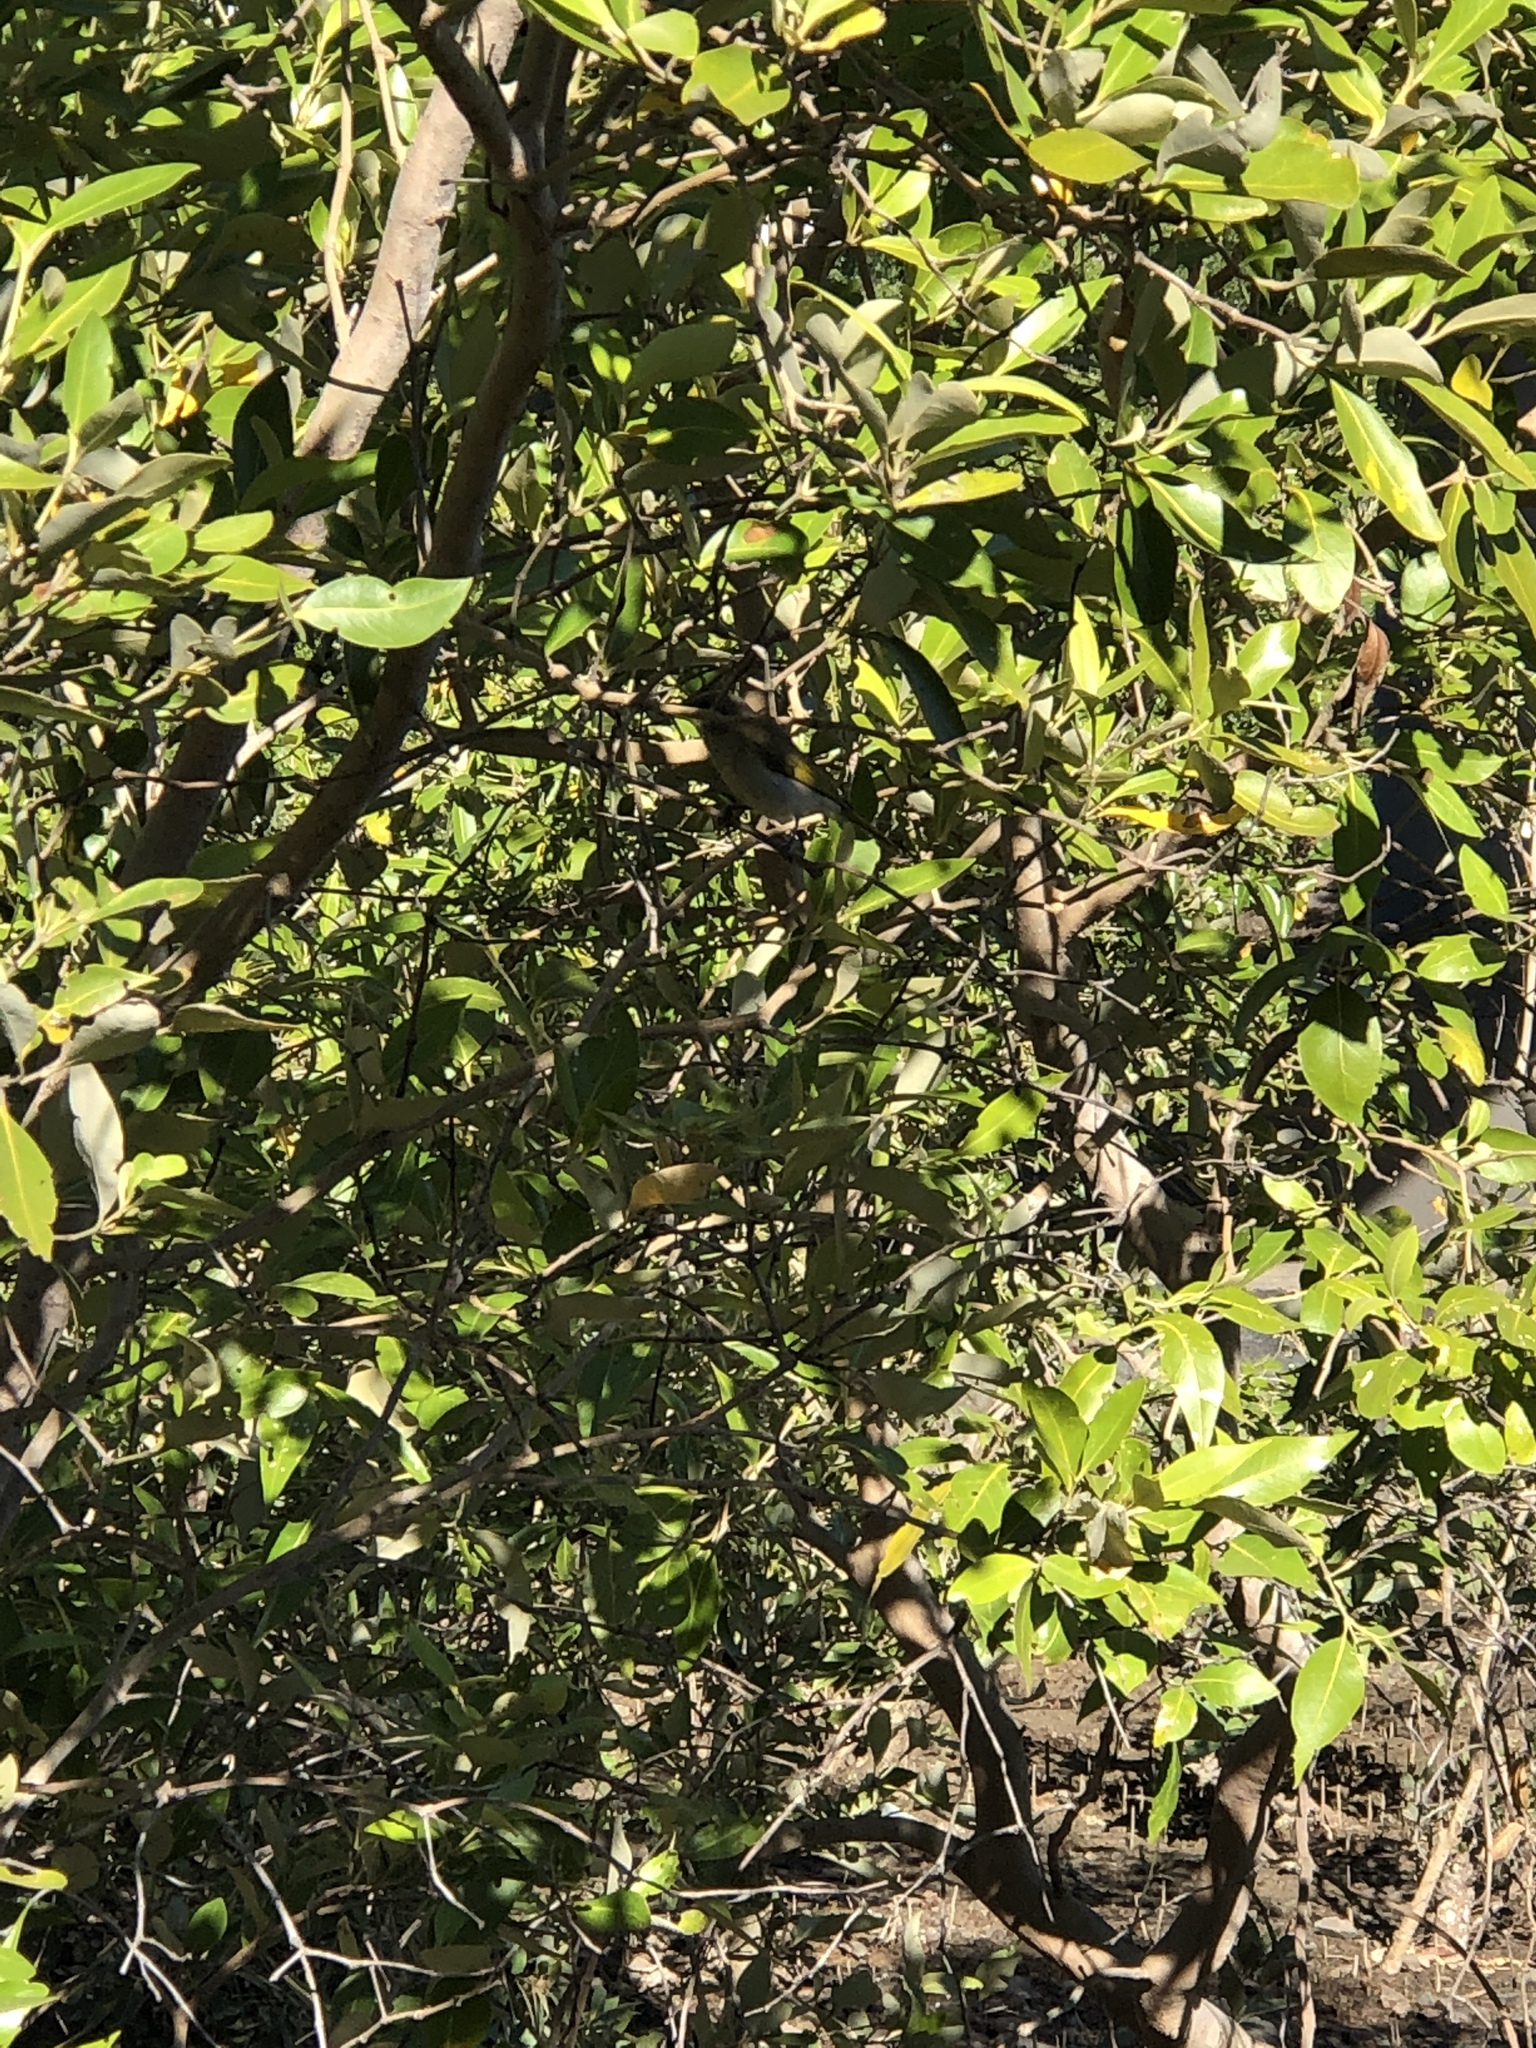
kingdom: Plantae
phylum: Tracheophyta
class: Magnoliopsida
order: Lamiales
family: Acanthaceae
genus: Avicennia
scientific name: Avicennia marina
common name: Gray mangrove
